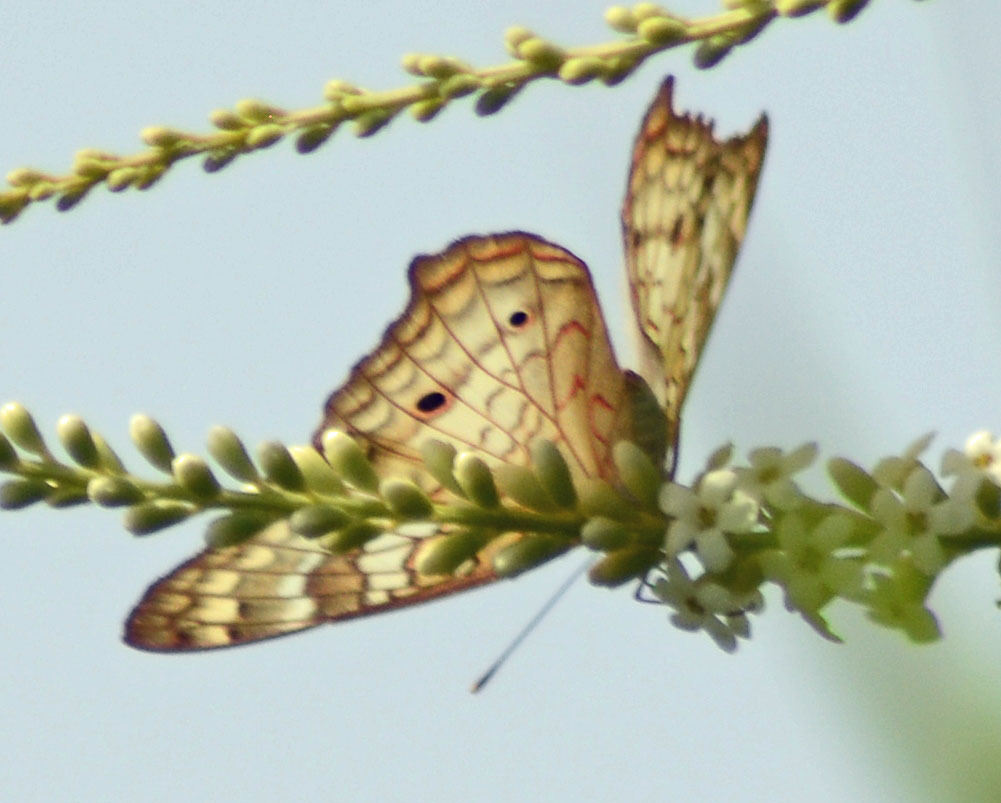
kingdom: Animalia
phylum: Arthropoda
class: Insecta
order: Lepidoptera
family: Nymphalidae
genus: Anartia
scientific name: Anartia jatrophae
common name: White peacock
